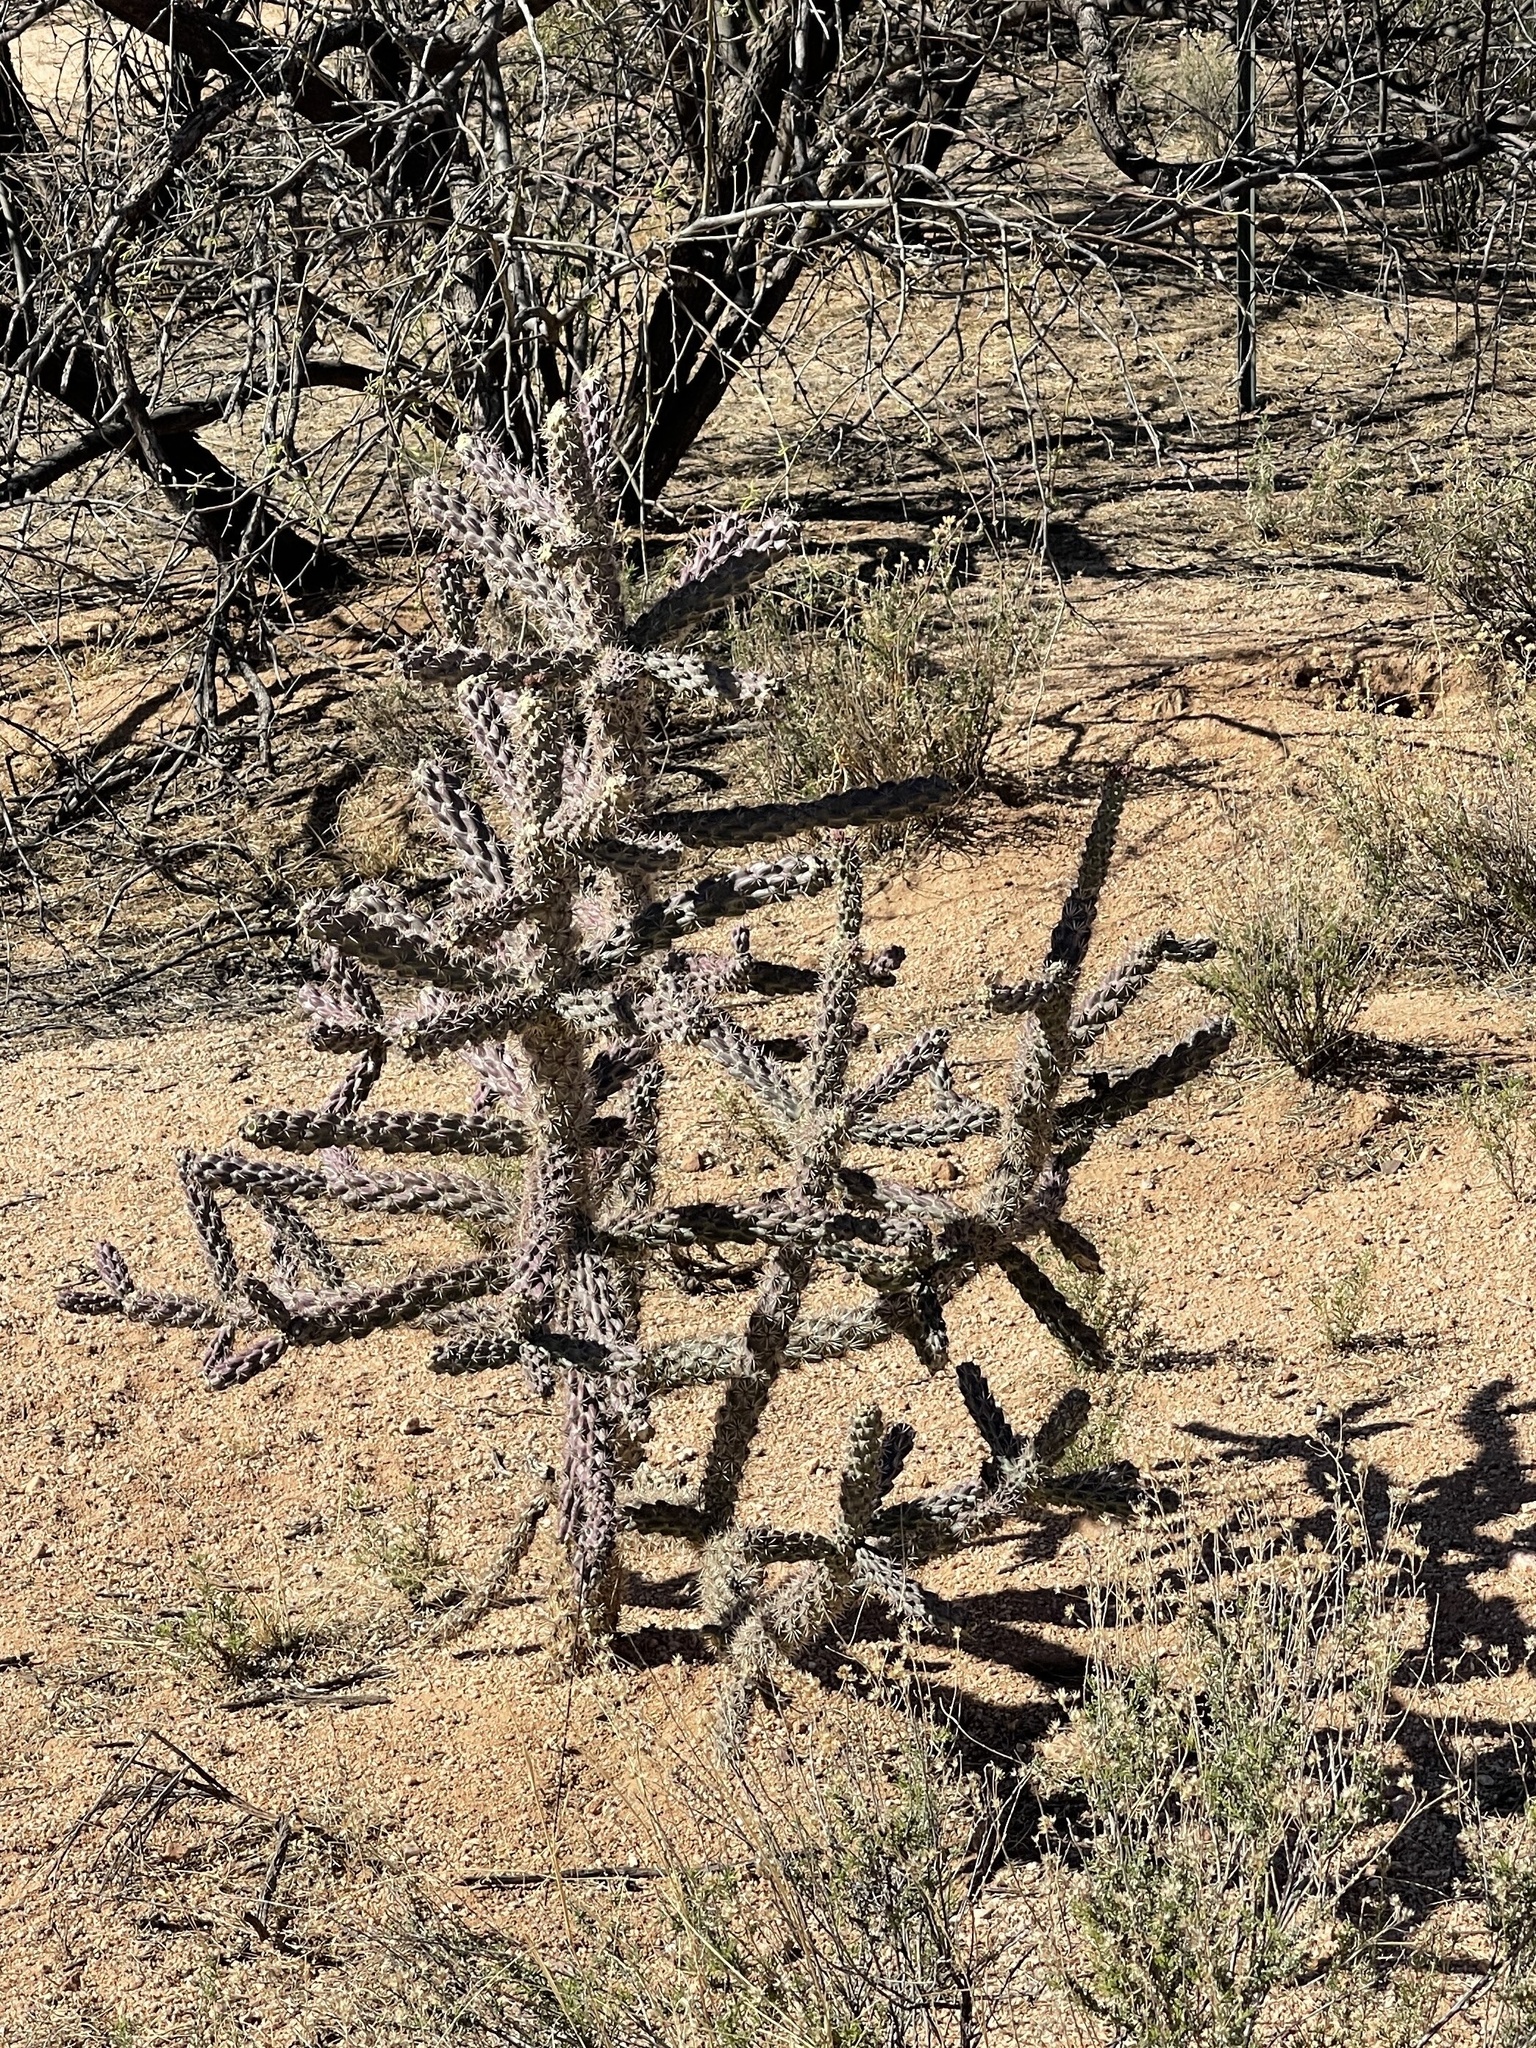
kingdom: Plantae
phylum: Tracheophyta
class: Magnoliopsida
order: Caryophyllales
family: Cactaceae
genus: Cylindropuntia
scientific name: Cylindropuntia imbricata
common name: Candelabrum cactus
